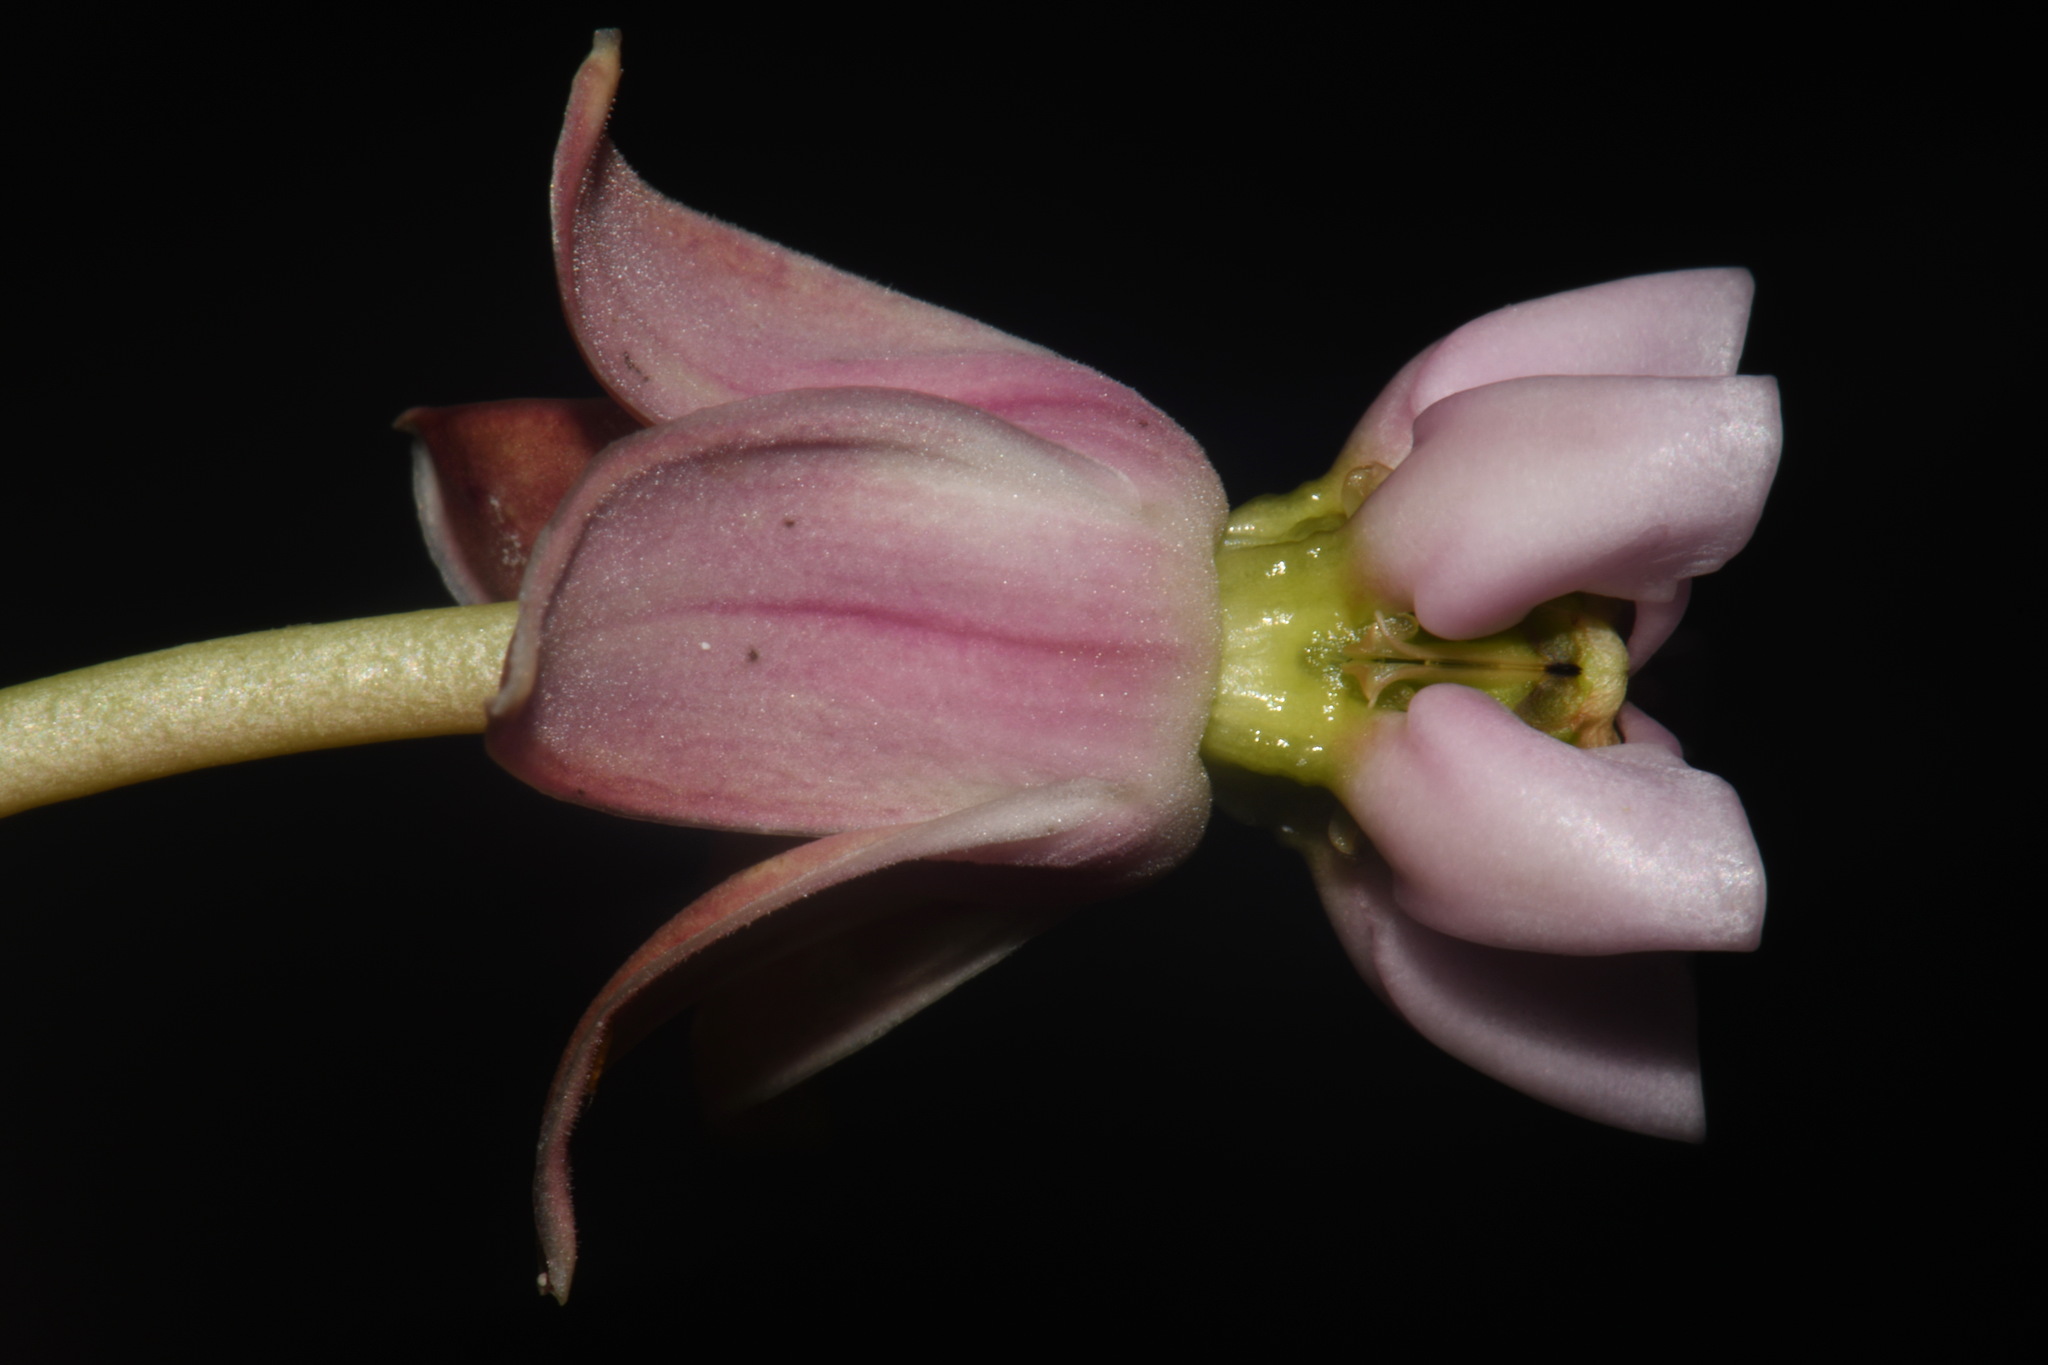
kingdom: Plantae
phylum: Tracheophyta
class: Magnoliopsida
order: Gentianales
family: Apocynaceae
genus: Asclepias
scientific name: Asclepias sullivantii
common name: Prairie milkweed
